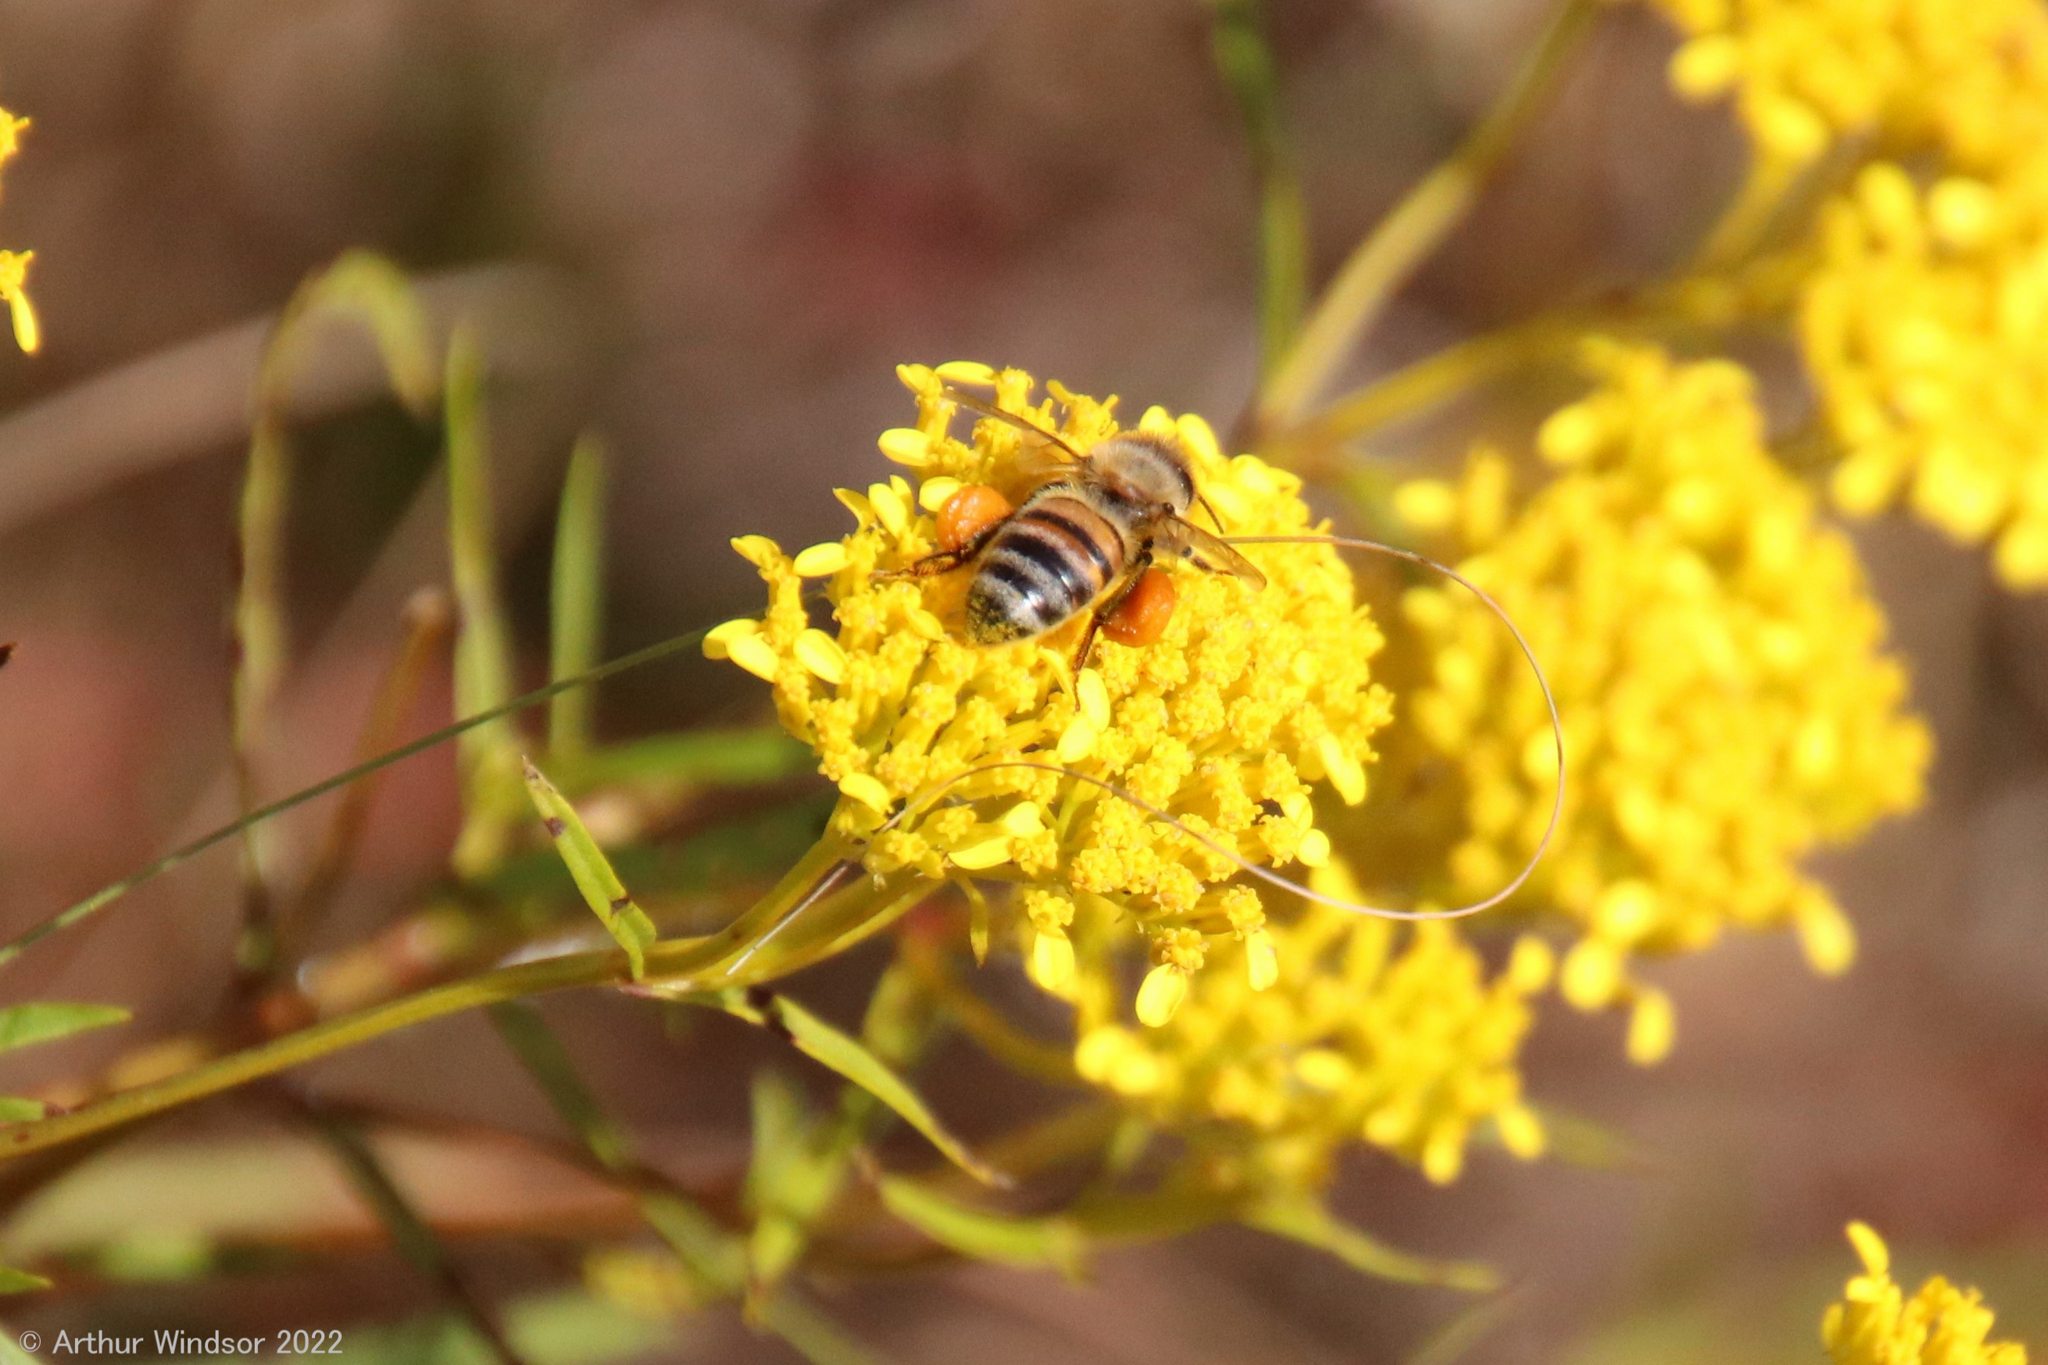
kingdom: Animalia
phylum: Arthropoda
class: Insecta
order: Hymenoptera
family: Apidae
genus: Apis
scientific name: Apis mellifera
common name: Honey bee
